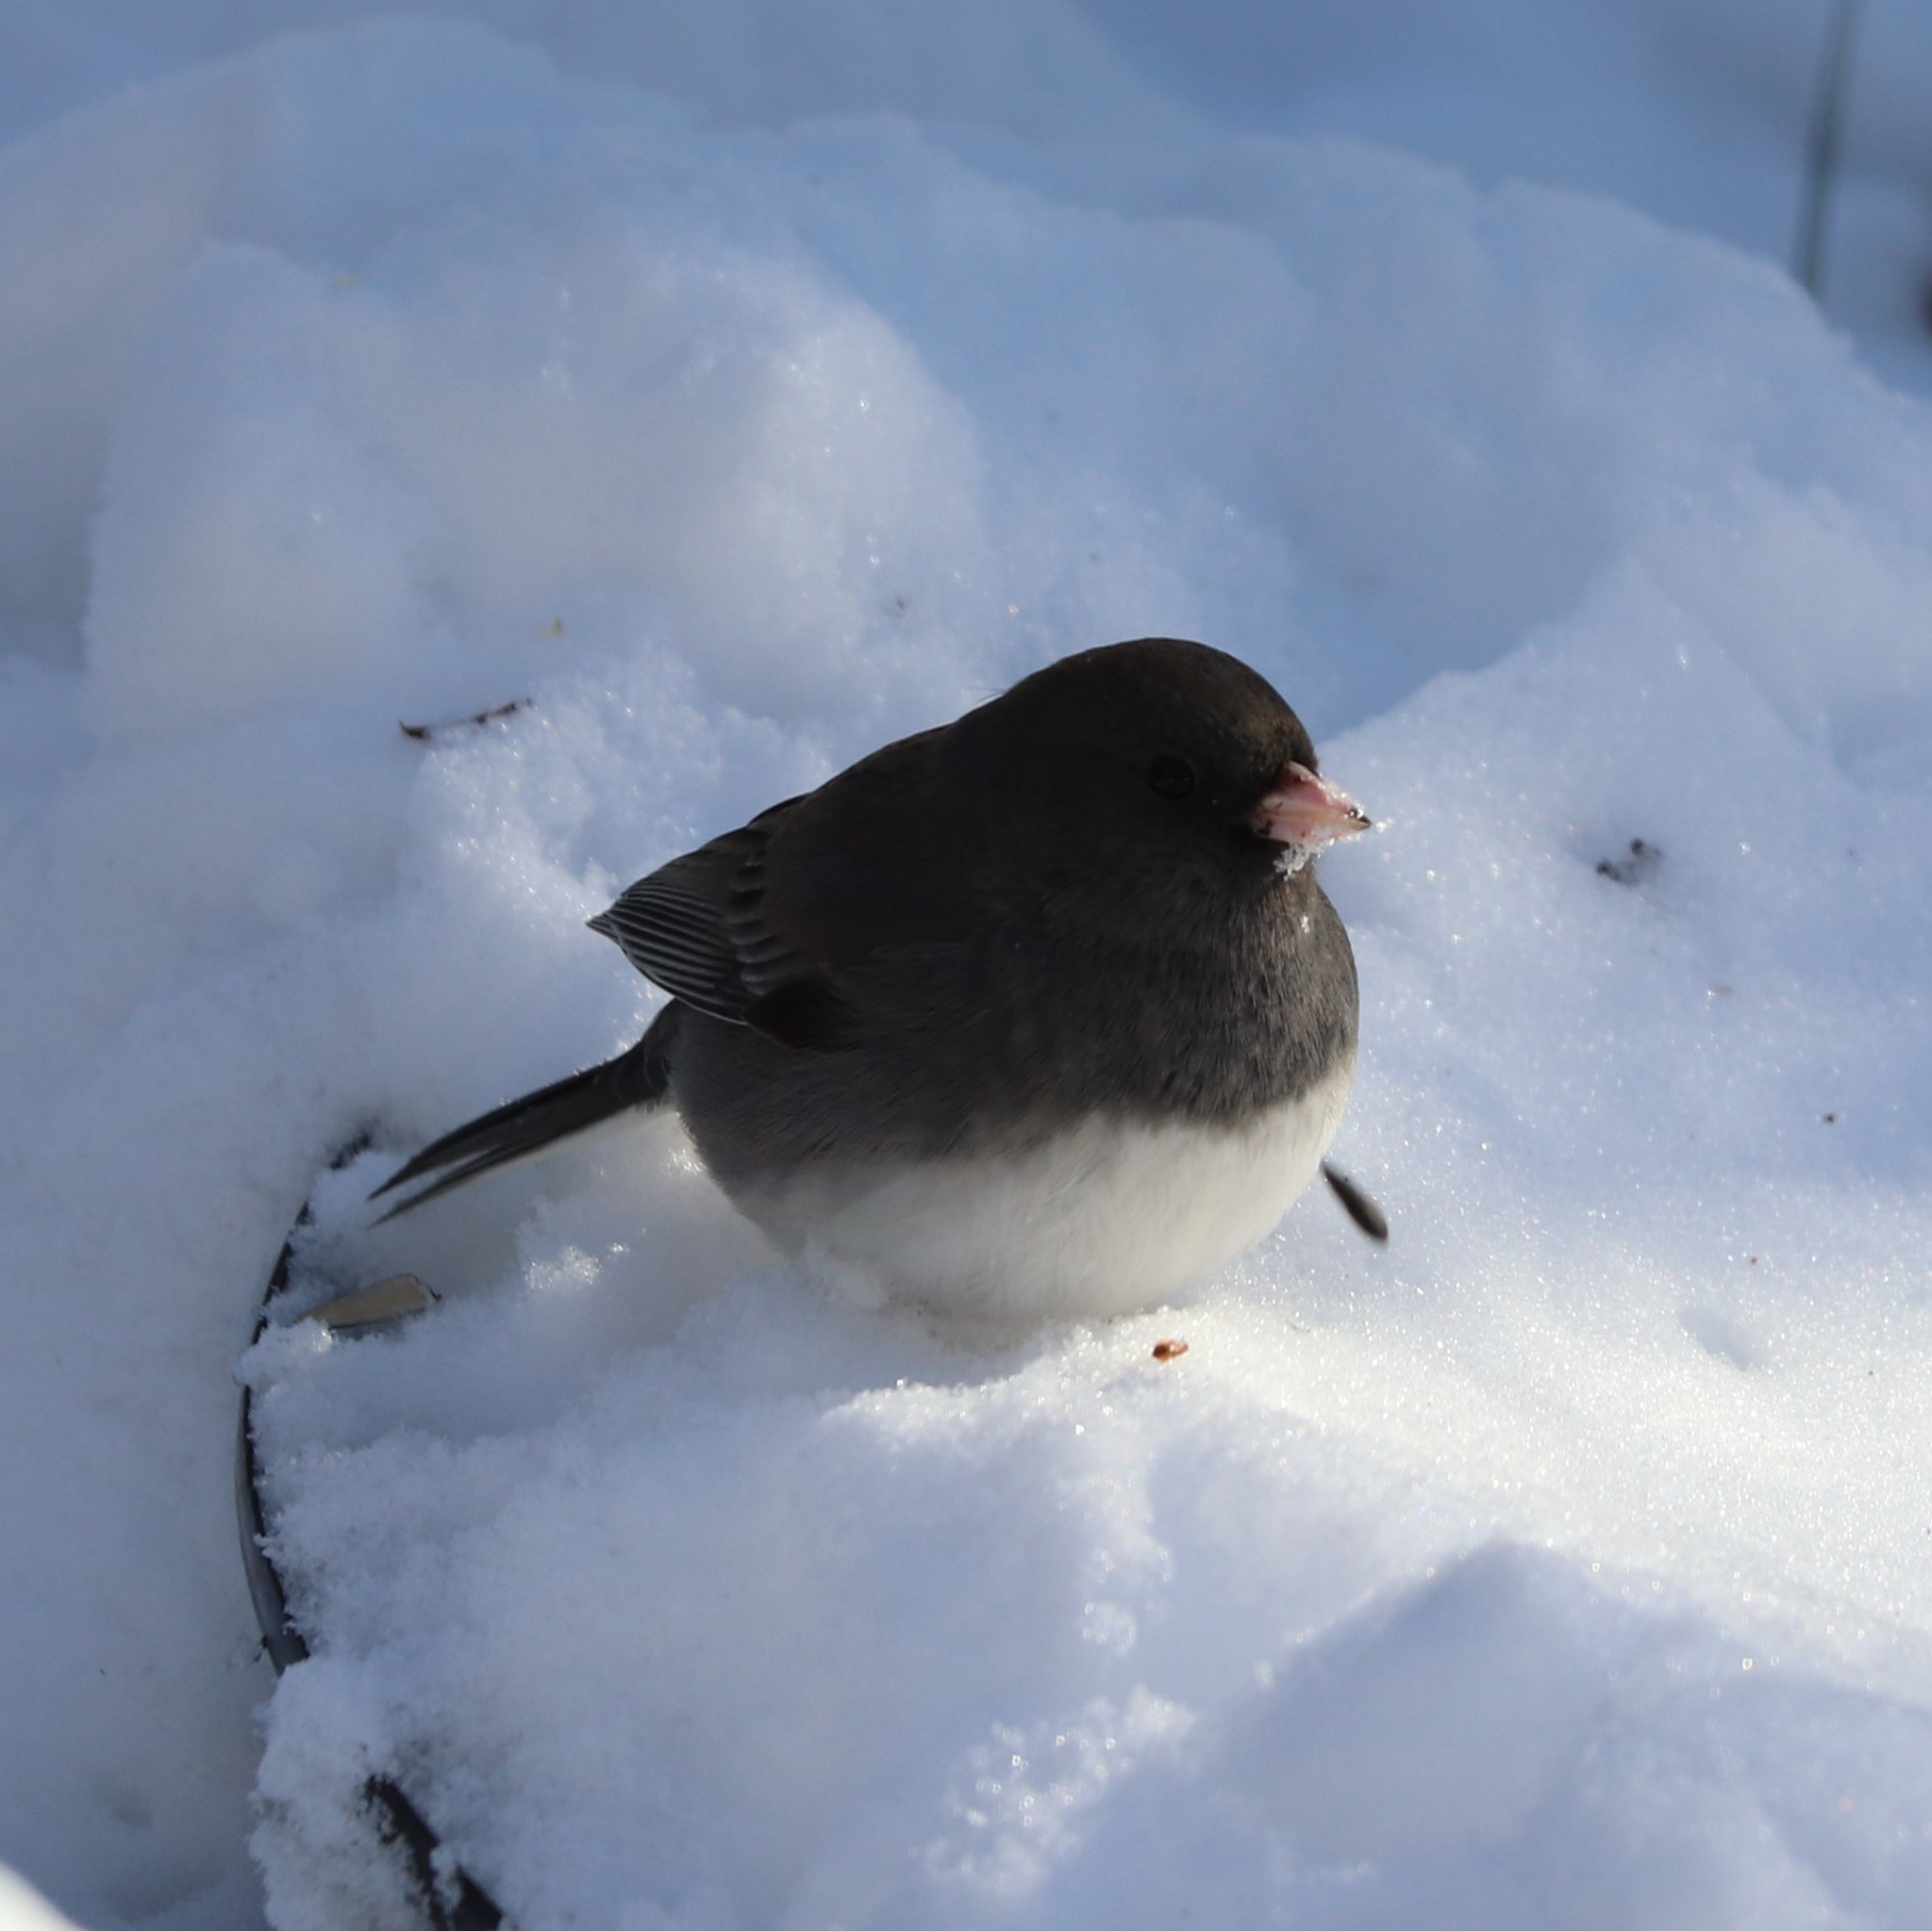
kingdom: Animalia
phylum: Chordata
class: Aves
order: Passeriformes
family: Passerellidae
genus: Junco
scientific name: Junco hyemalis
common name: Dark-eyed junco
